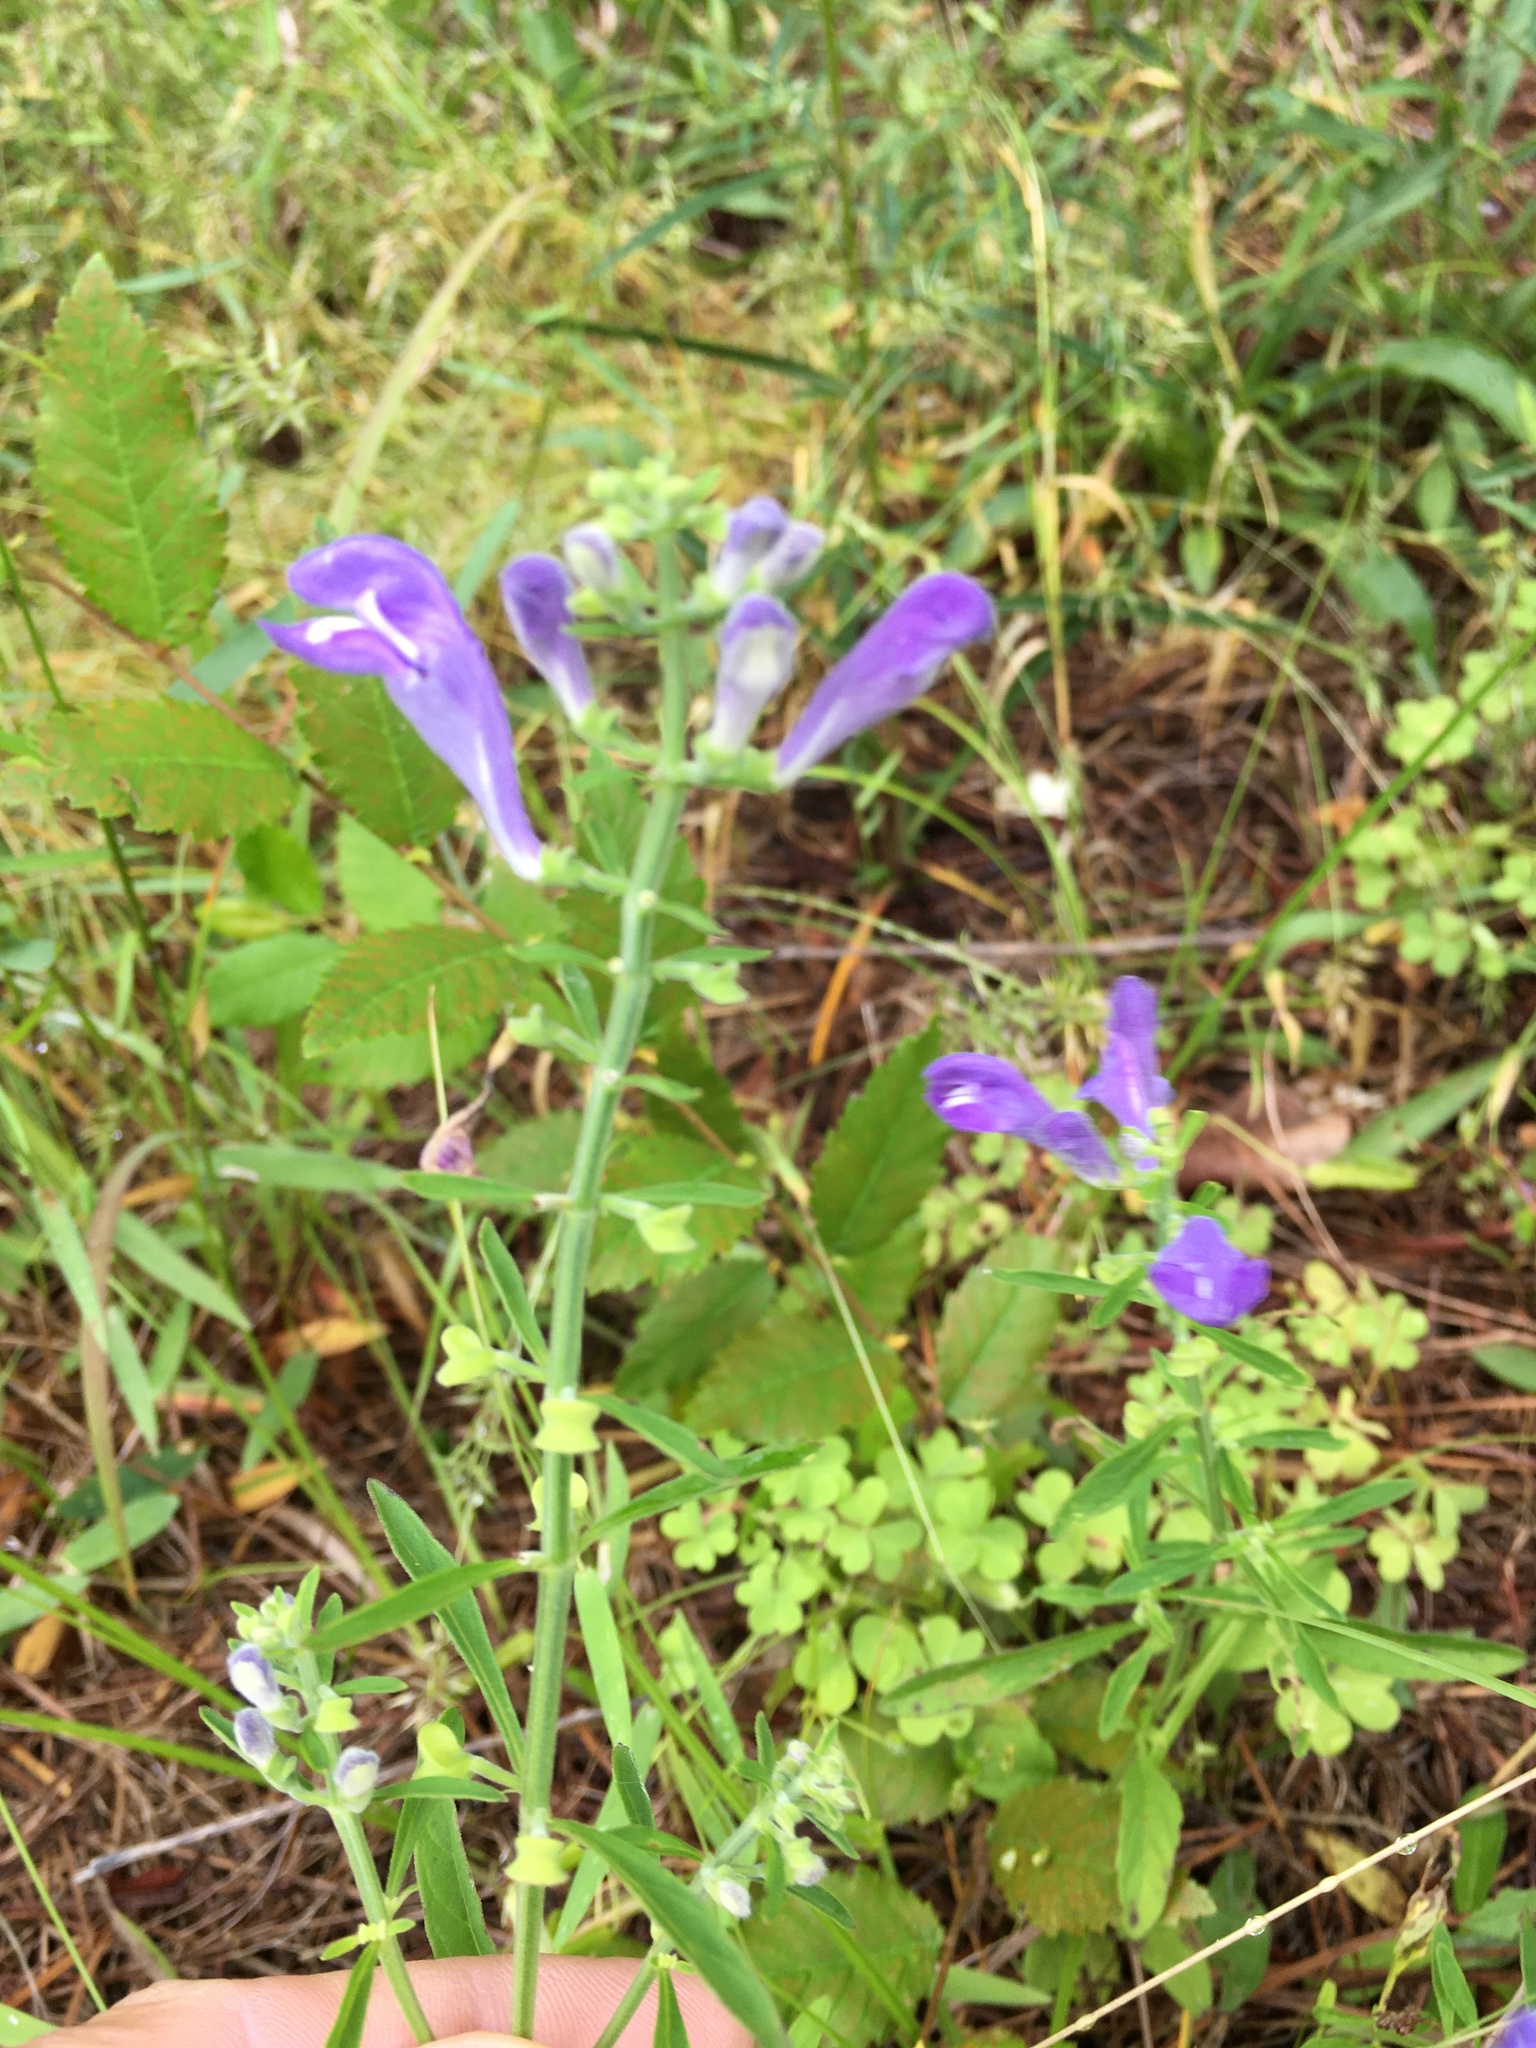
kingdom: Plantae
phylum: Tracheophyta
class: Magnoliopsida
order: Lamiales
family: Lamiaceae
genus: Scutellaria
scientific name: Scutellaria integrifolia
